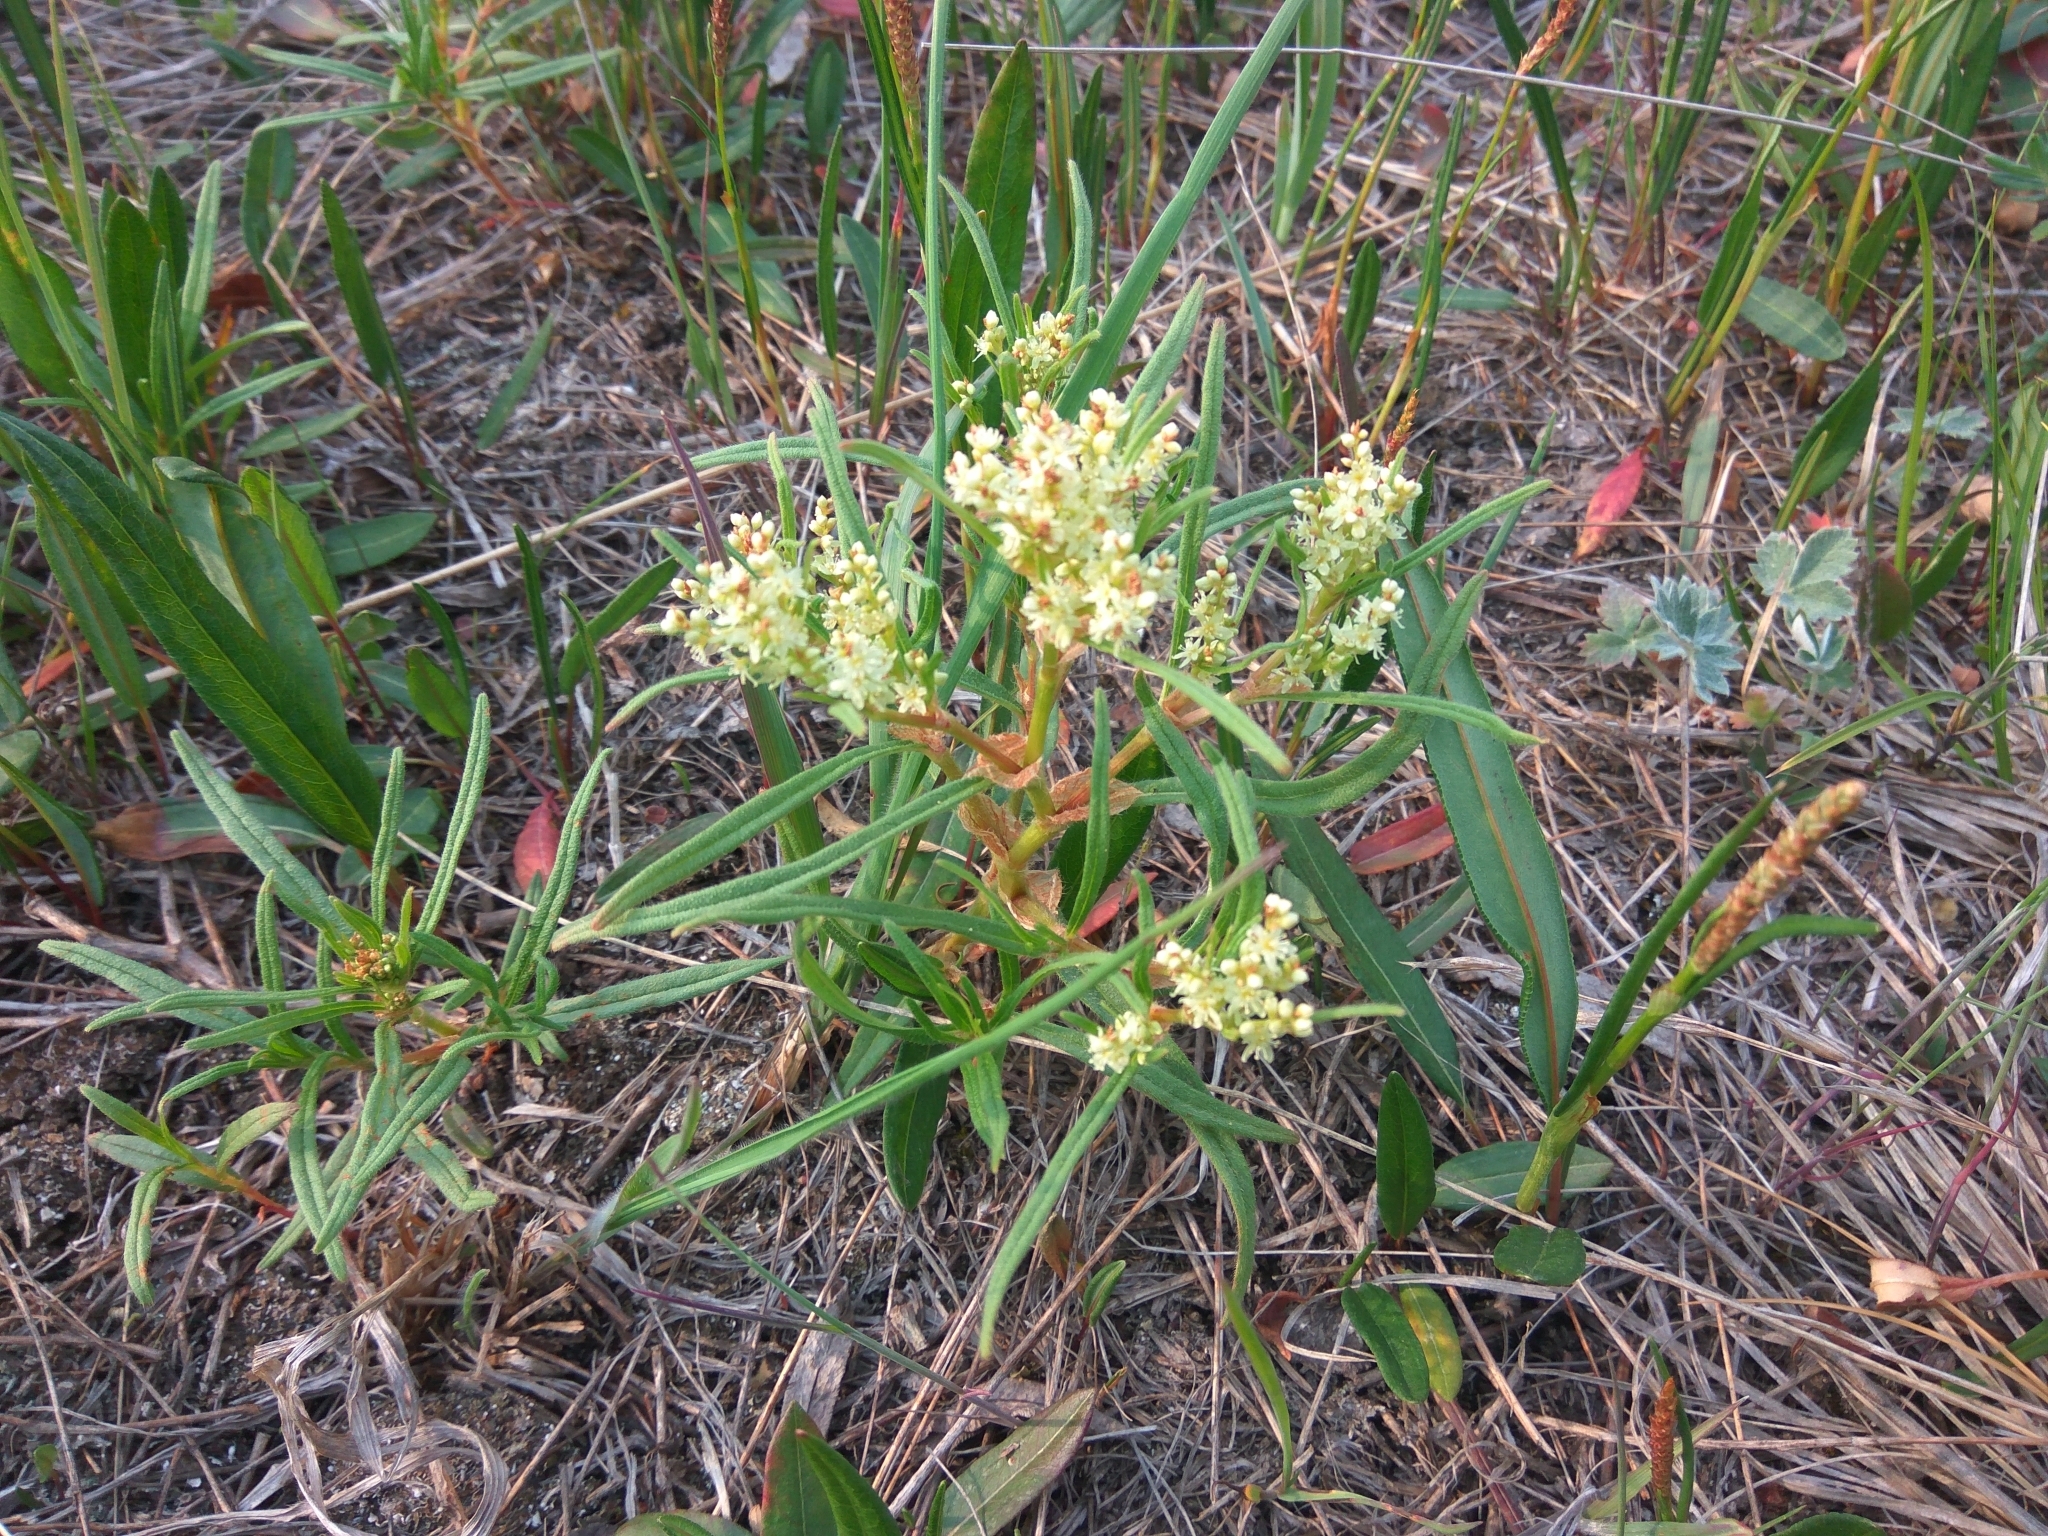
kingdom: Plantae
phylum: Tracheophyta
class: Magnoliopsida
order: Caryophyllales
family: Polygonaceae
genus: Koenigia
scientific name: Koenigia tripterocarpa
